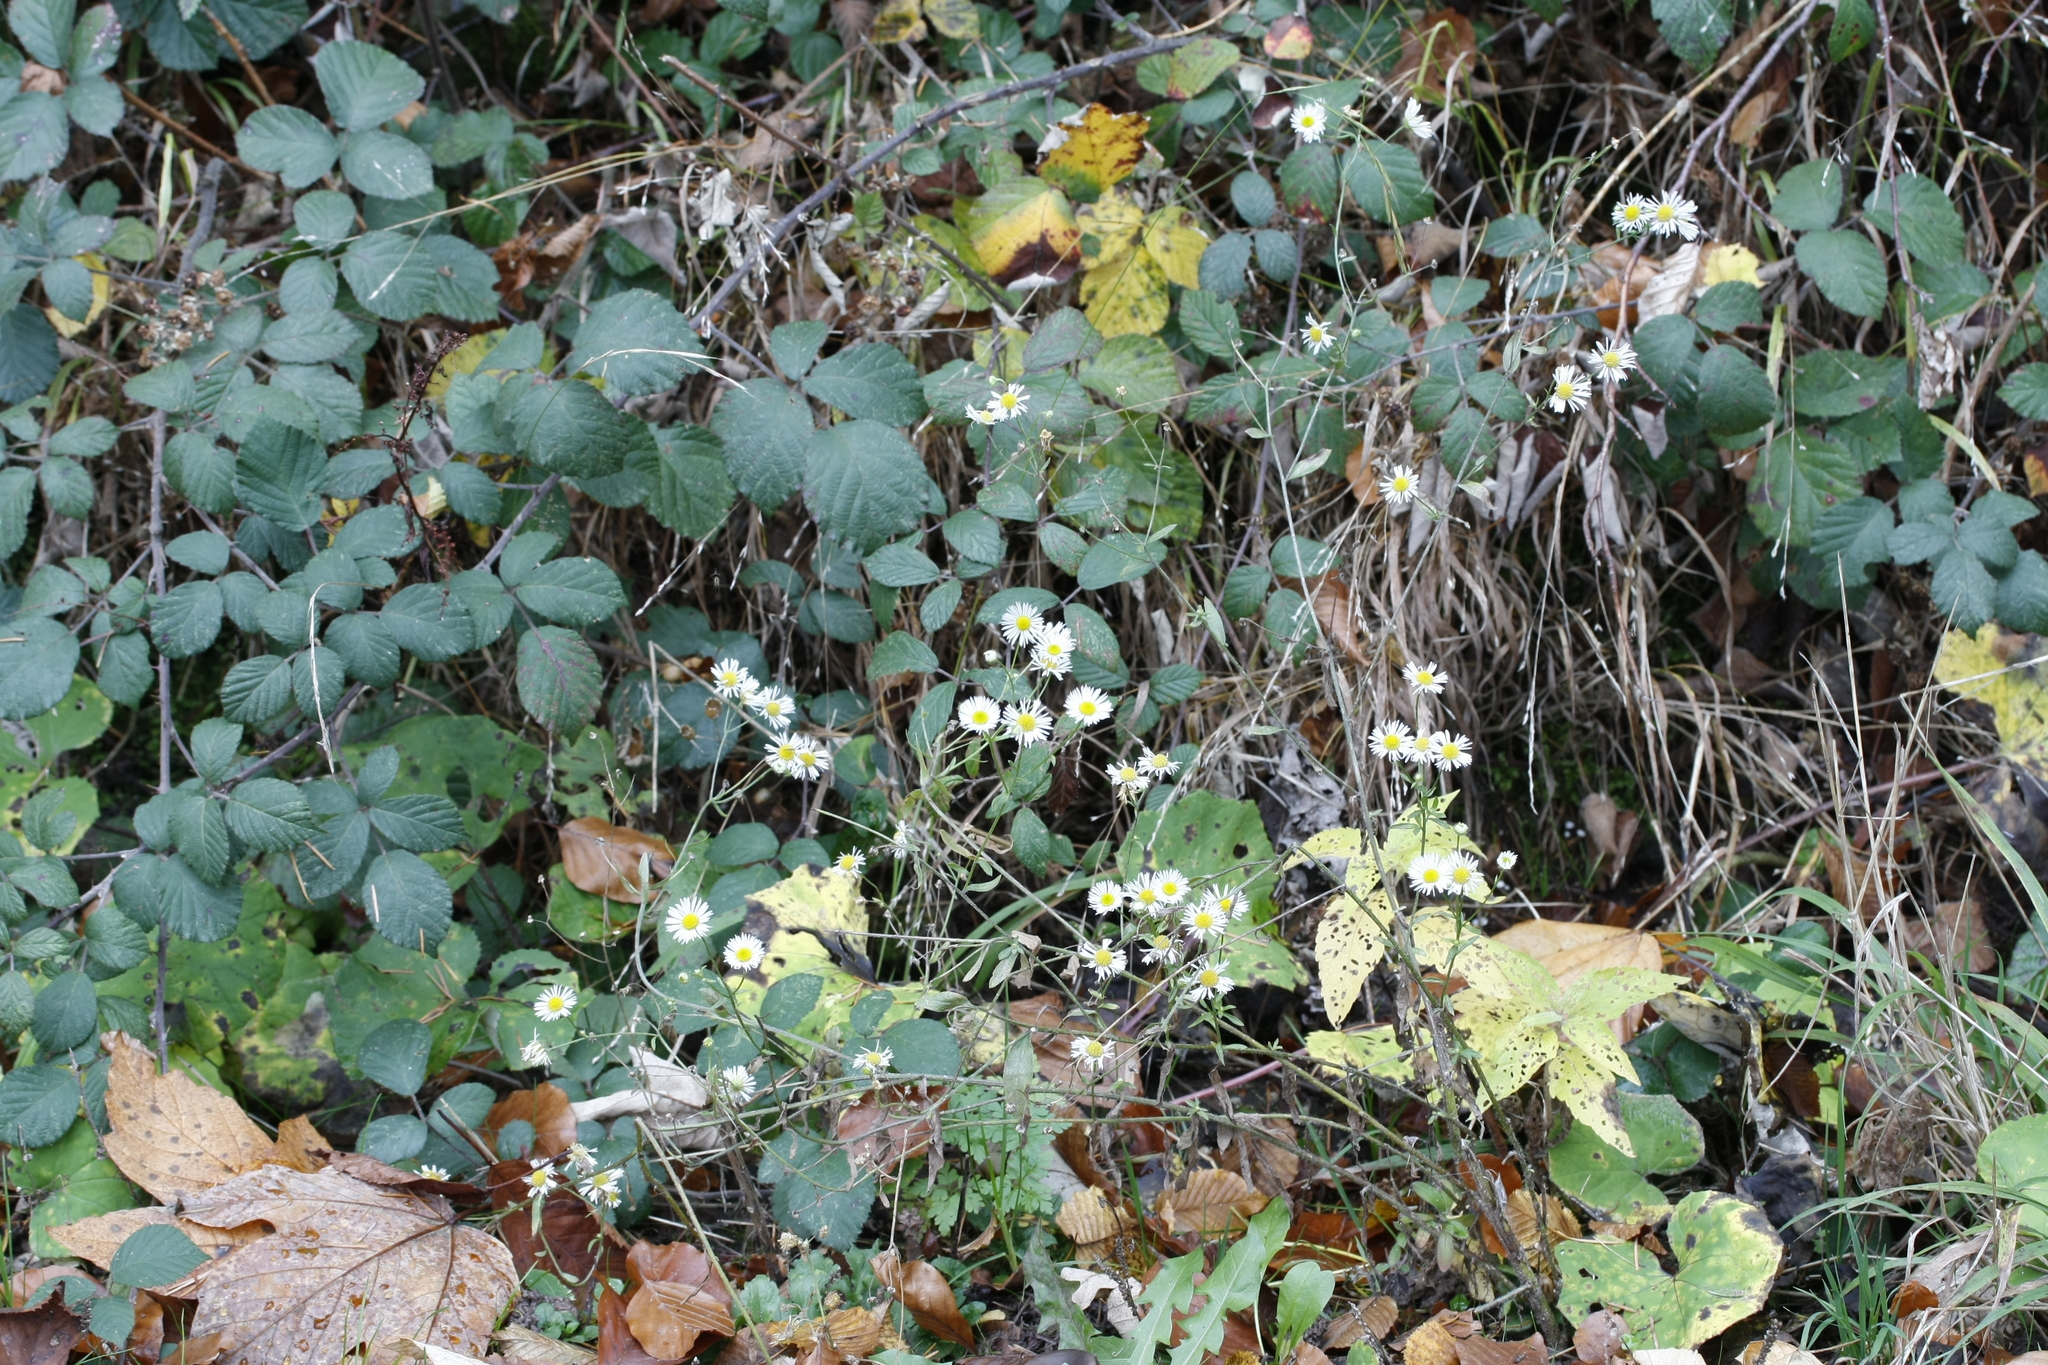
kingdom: Plantae
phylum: Tracheophyta
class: Magnoliopsida
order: Asterales
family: Asteraceae
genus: Erigeron
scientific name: Erigeron annuus
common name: Tall fleabane
